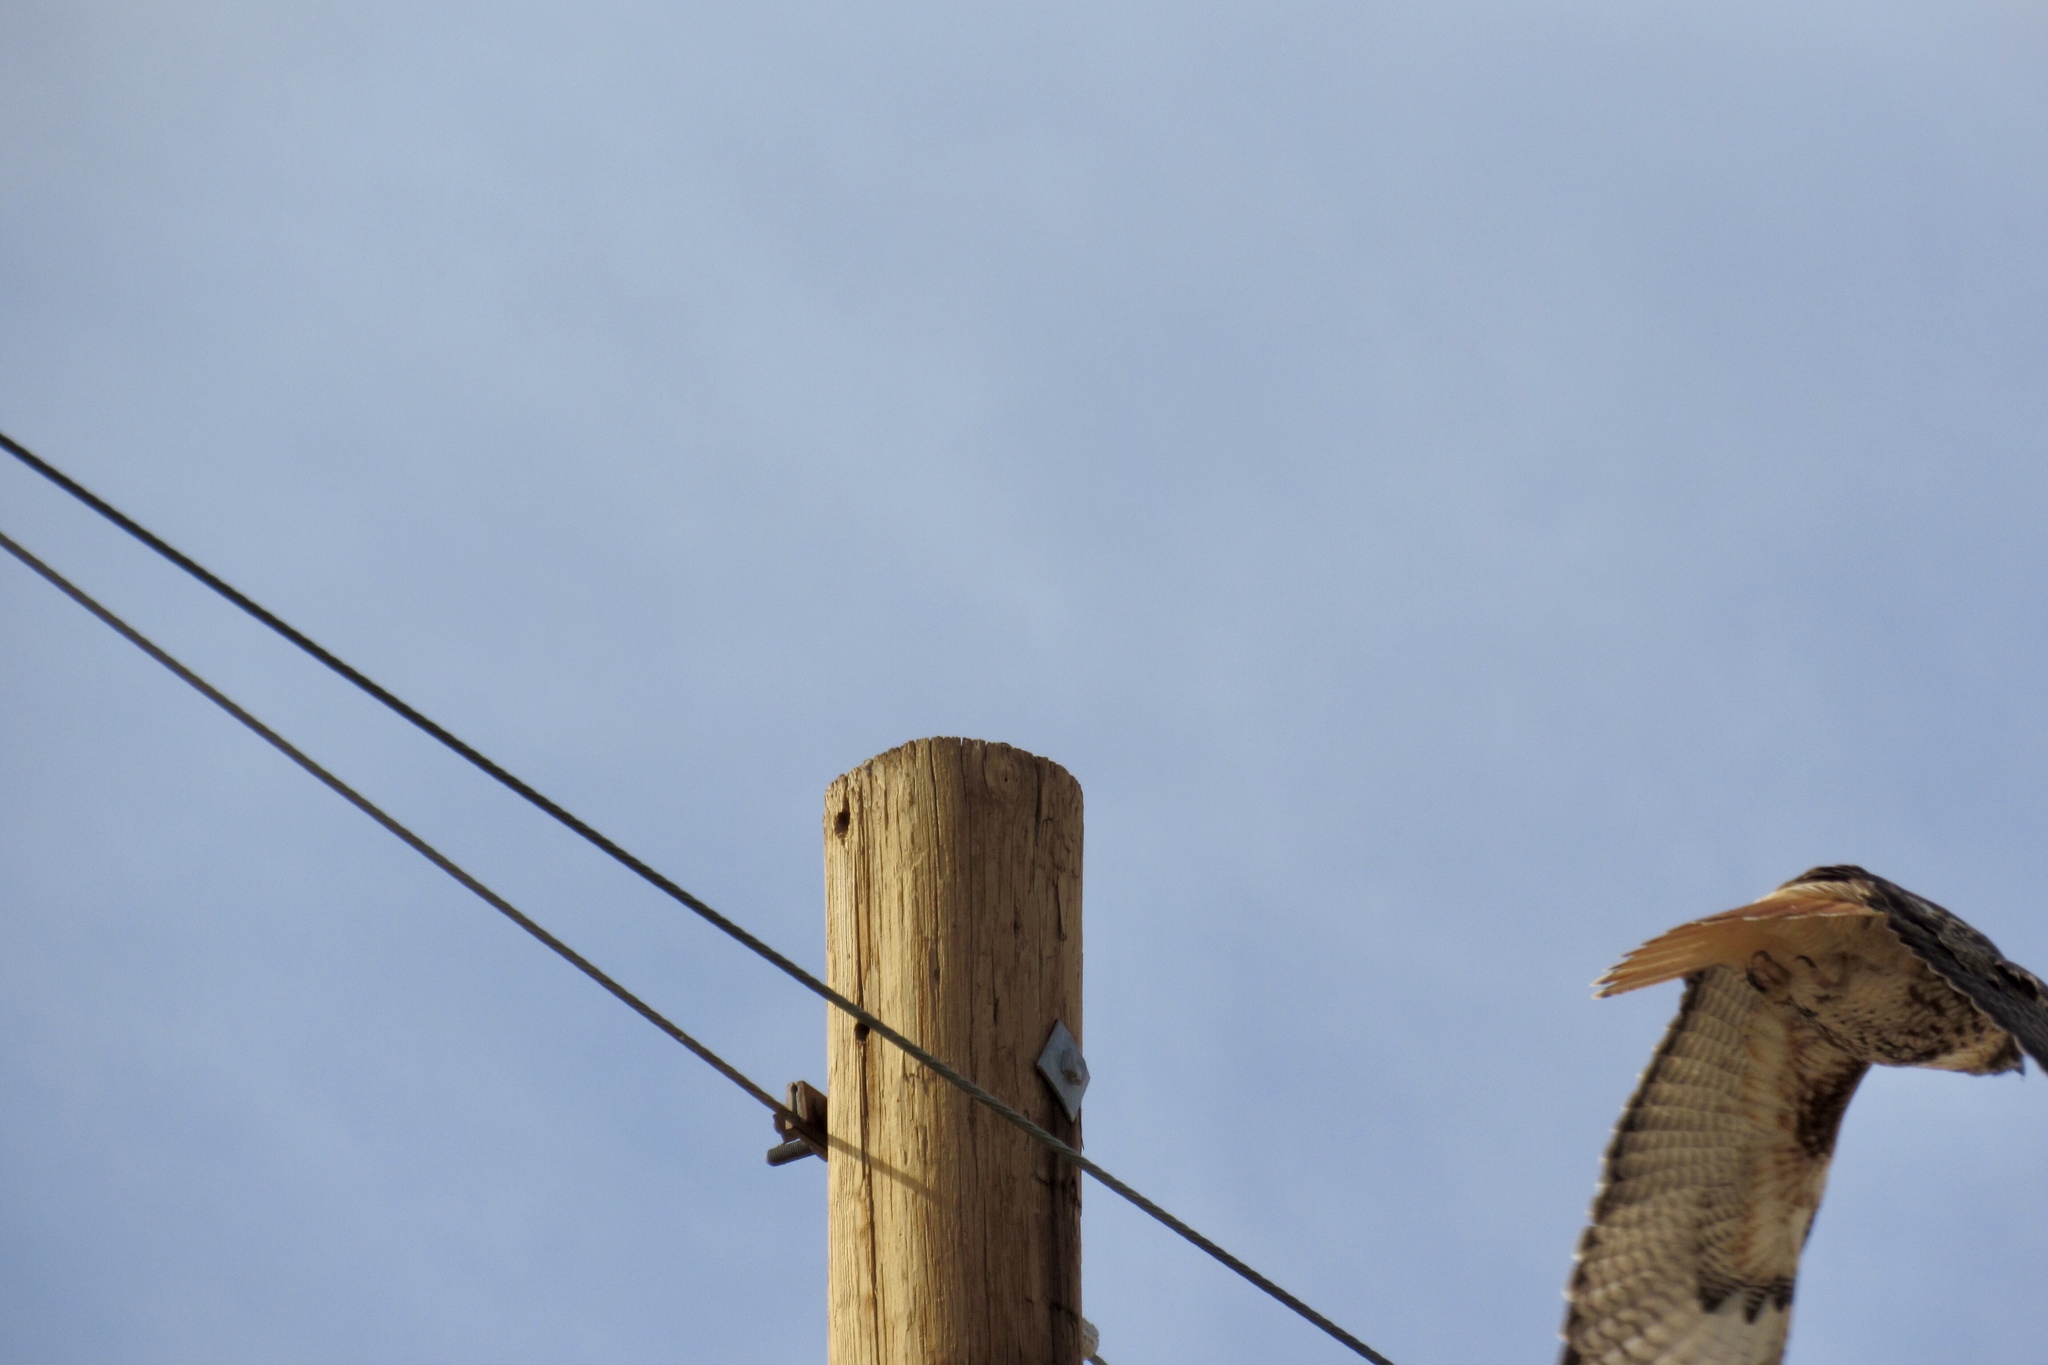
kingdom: Animalia
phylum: Chordata
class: Aves
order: Accipitriformes
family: Accipitridae
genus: Buteo
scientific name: Buteo jamaicensis
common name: Red-tailed hawk
